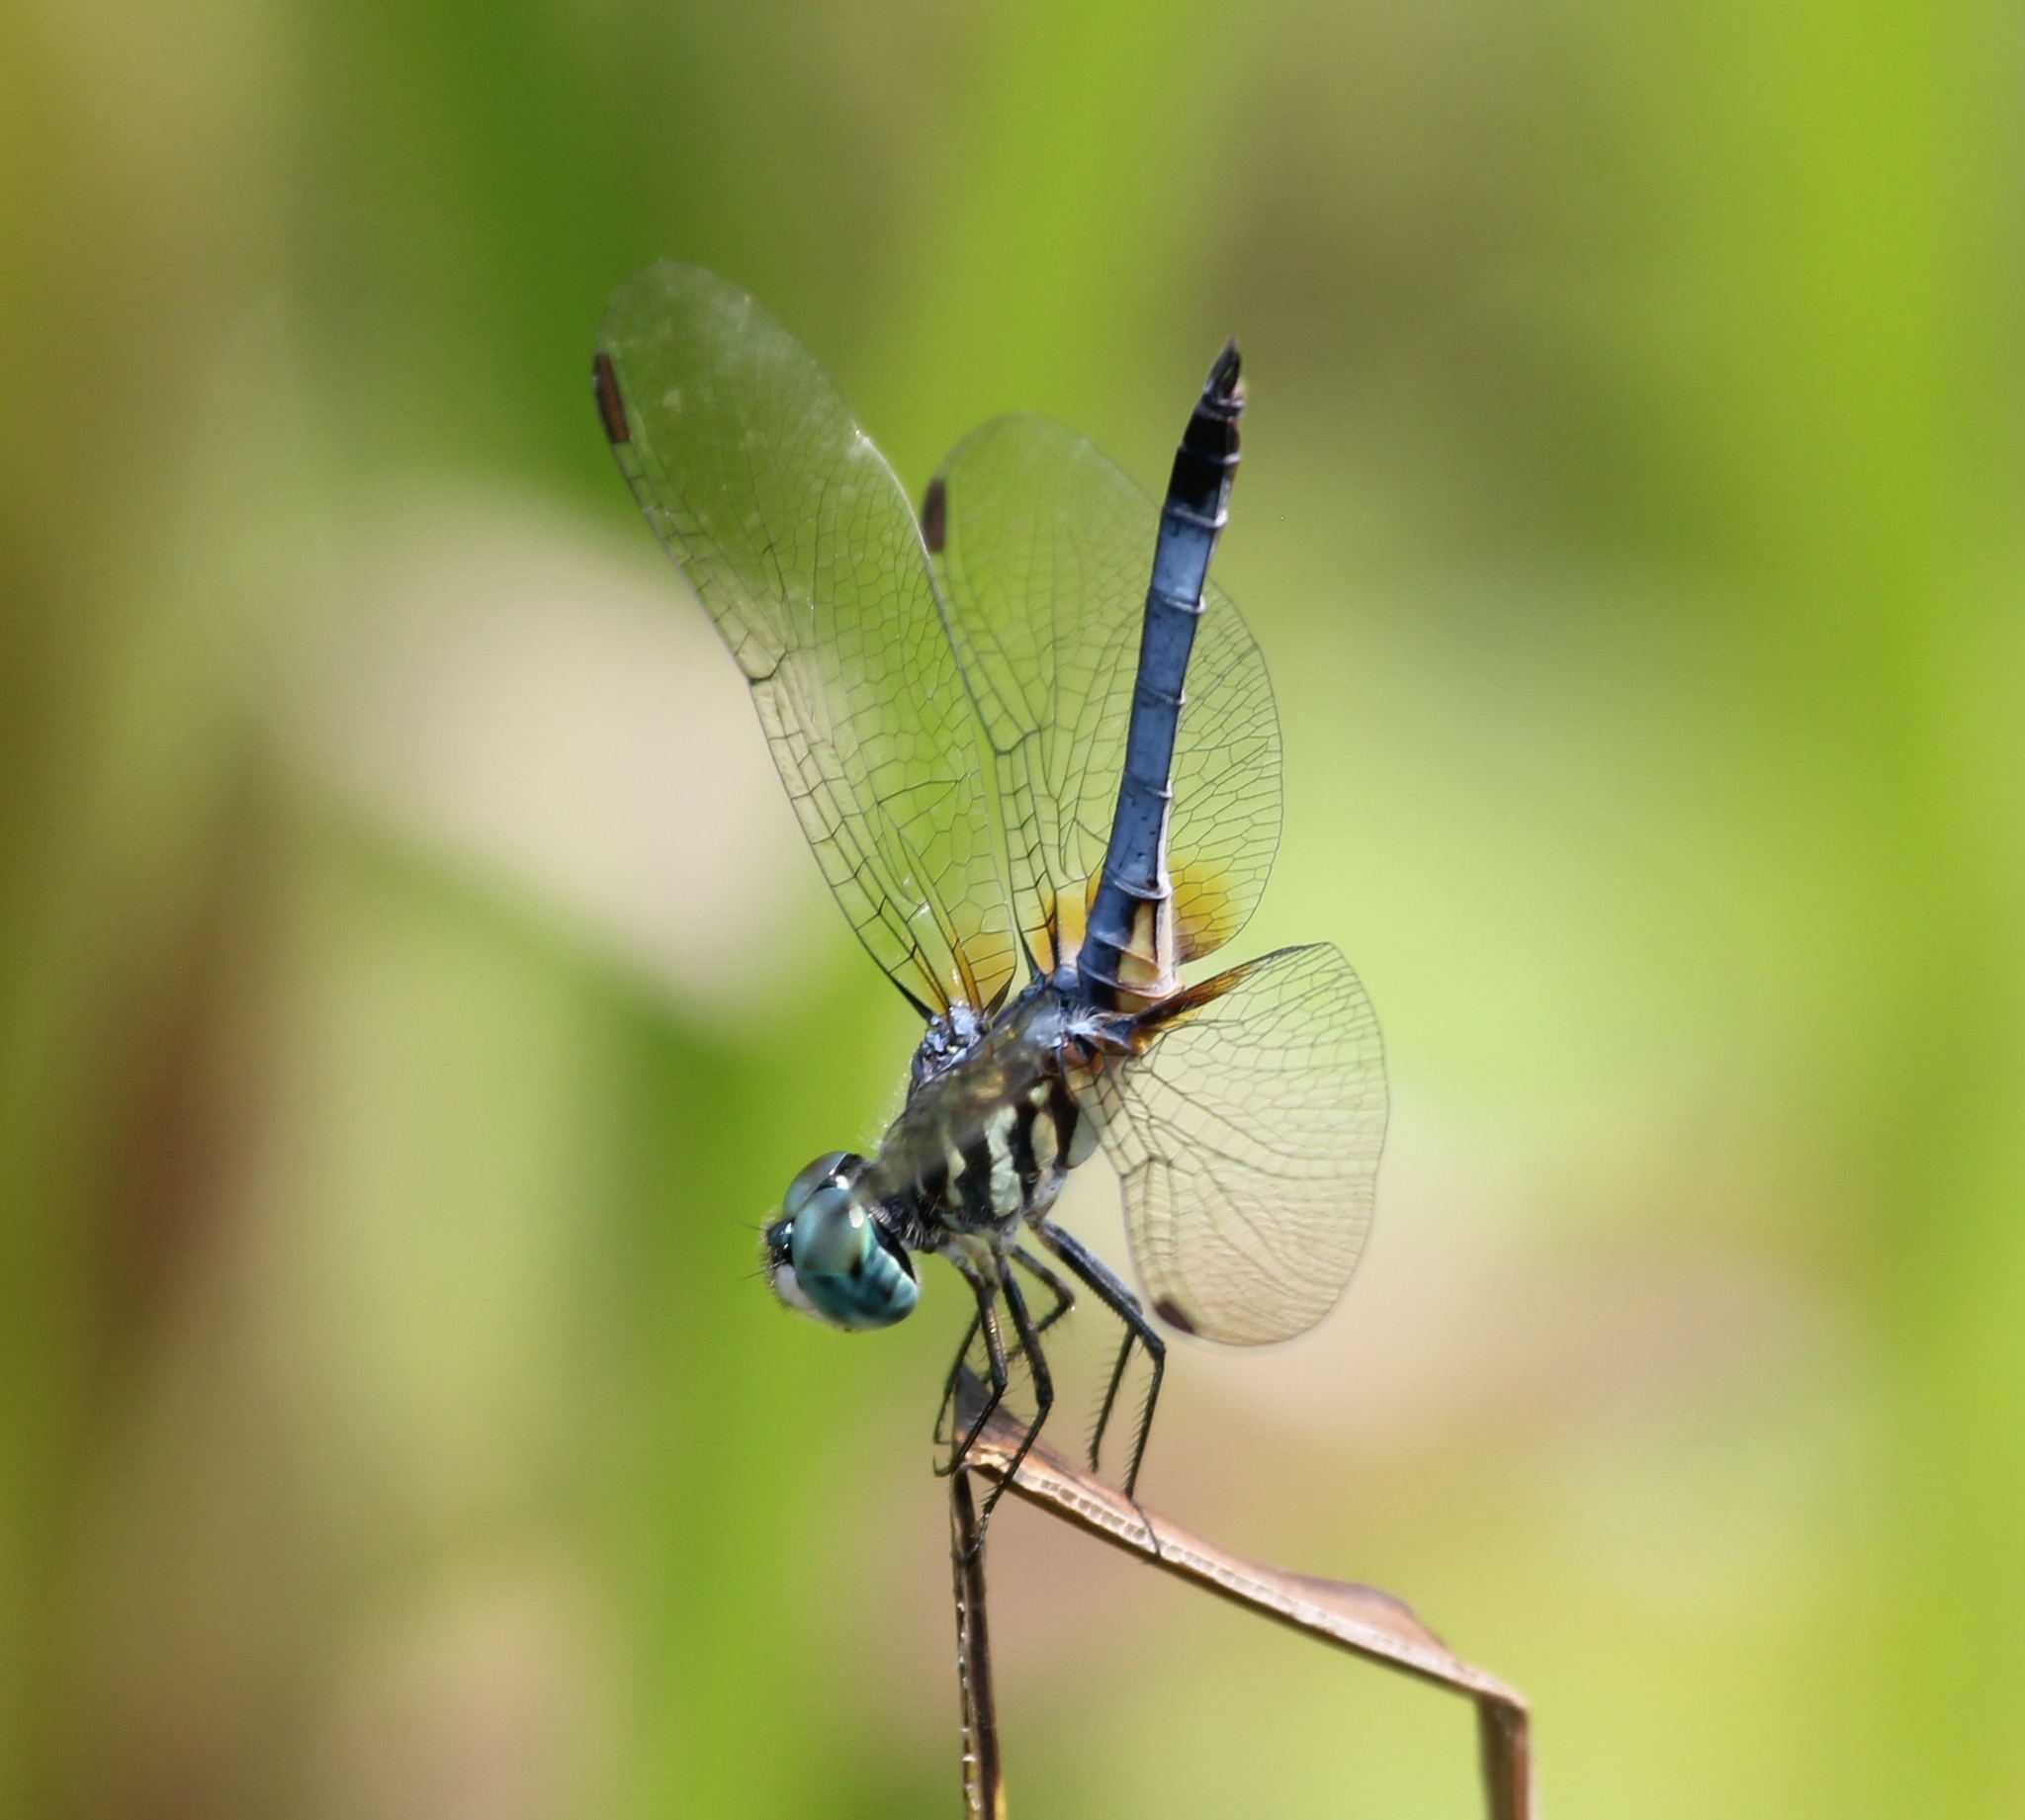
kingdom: Animalia
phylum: Arthropoda
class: Insecta
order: Odonata
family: Libellulidae
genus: Pachydiplax
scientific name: Pachydiplax longipennis
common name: Blue dasher
